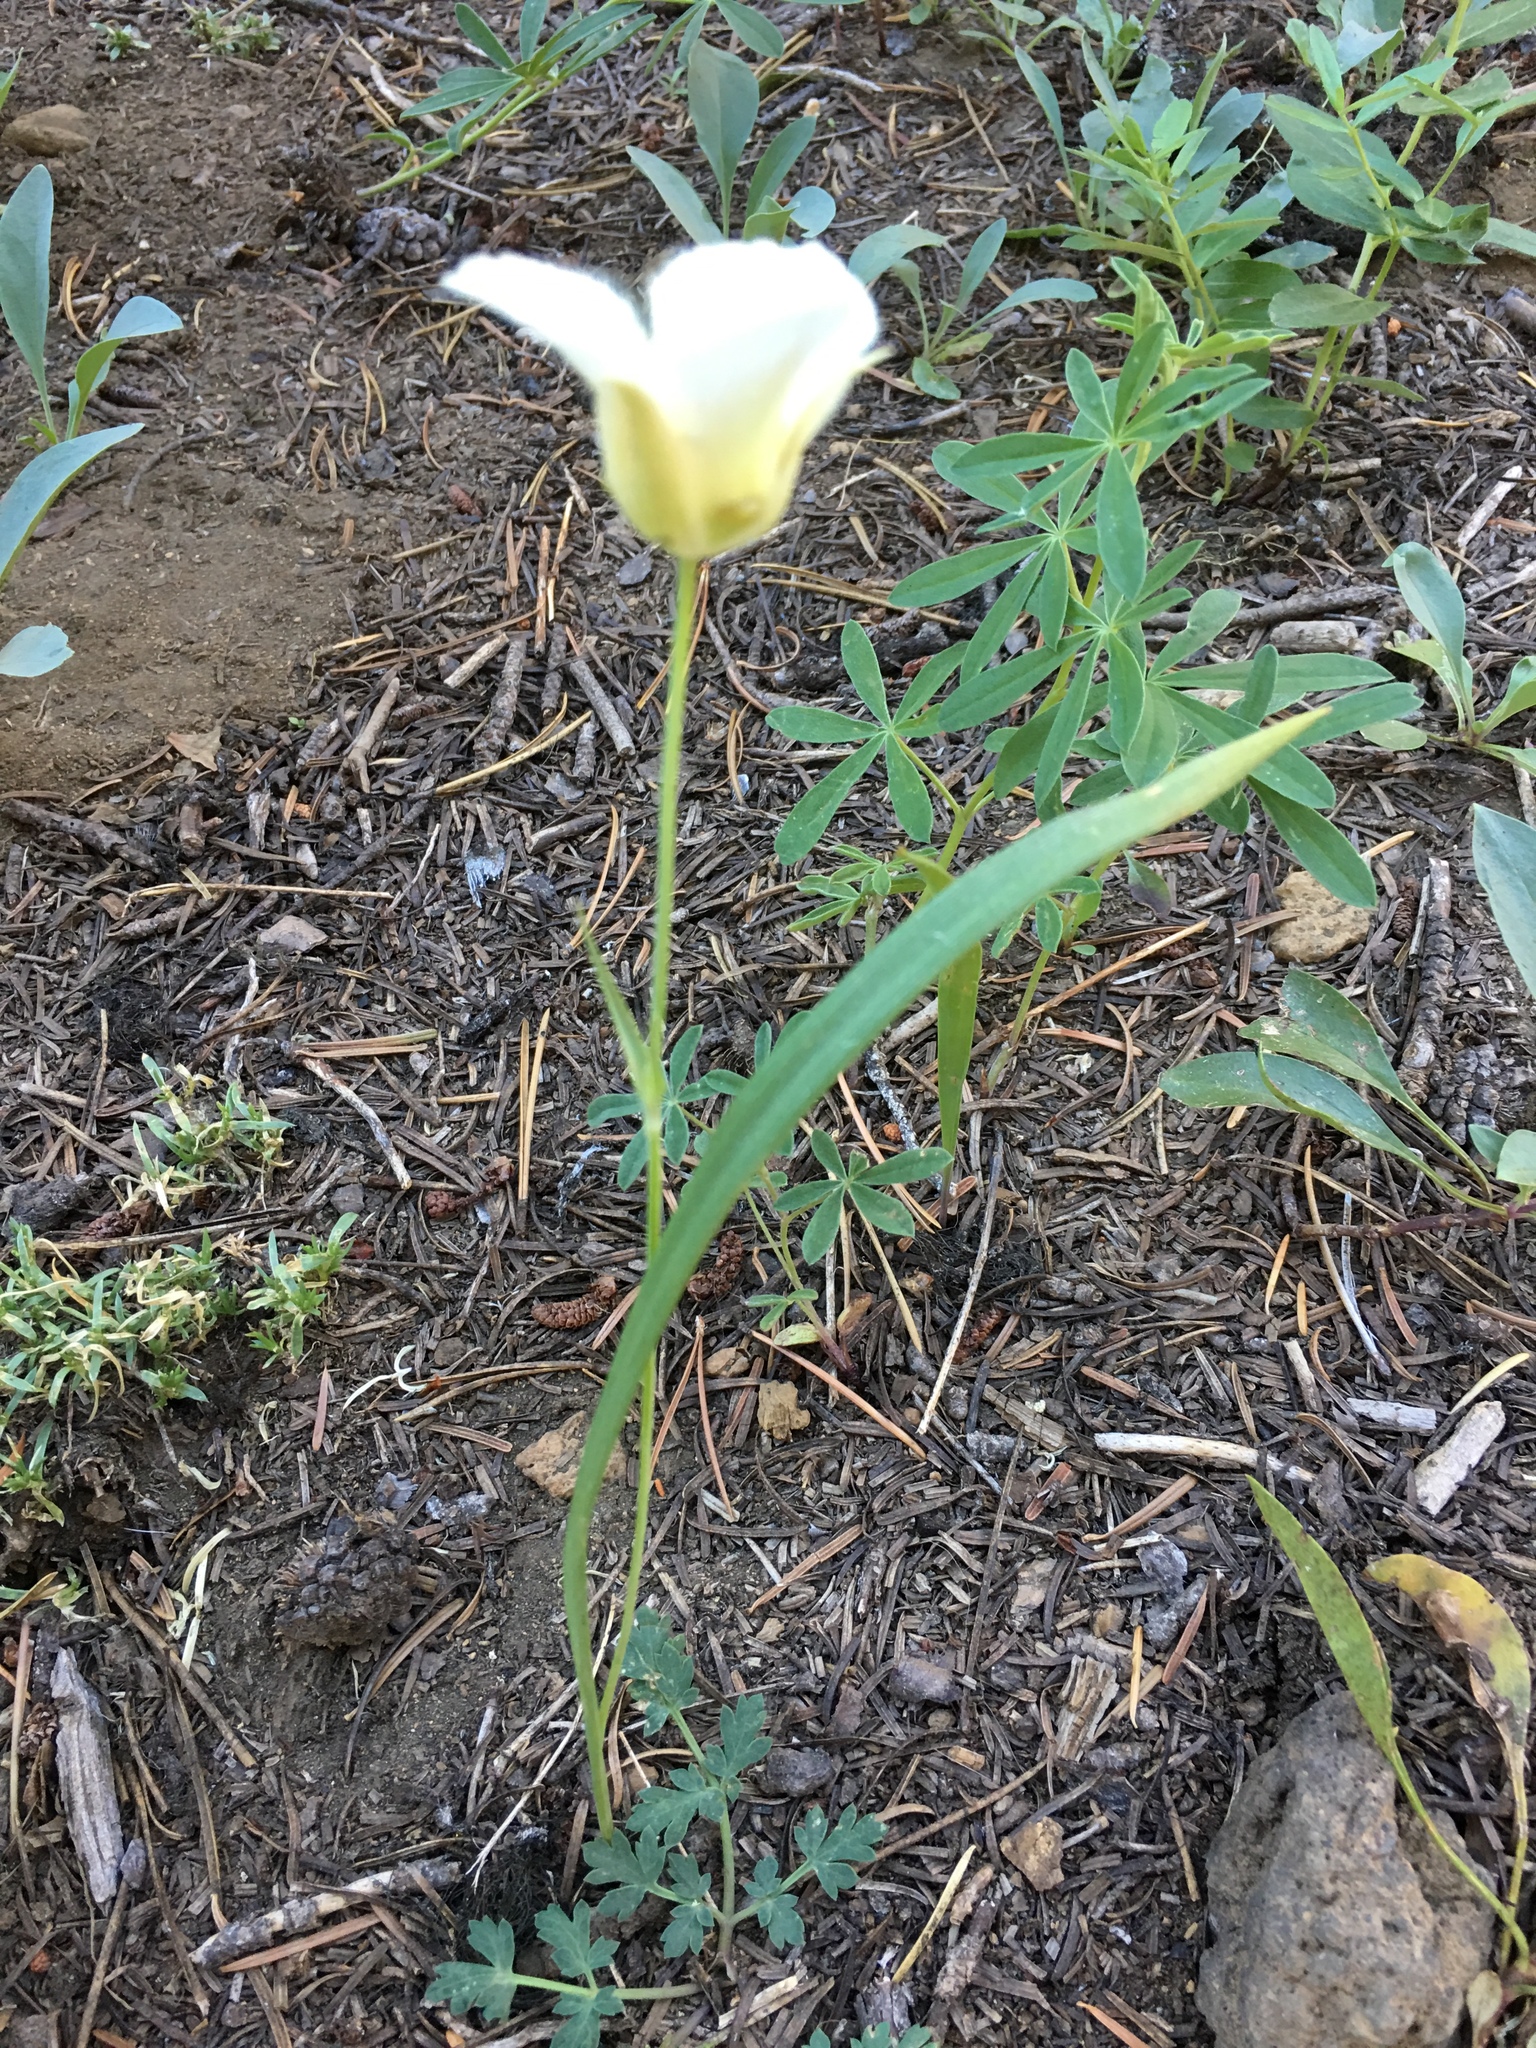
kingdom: Plantae
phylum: Tracheophyta
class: Liliopsida
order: Liliales
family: Liliaceae
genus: Calochortus
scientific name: Calochortus subalpinus
